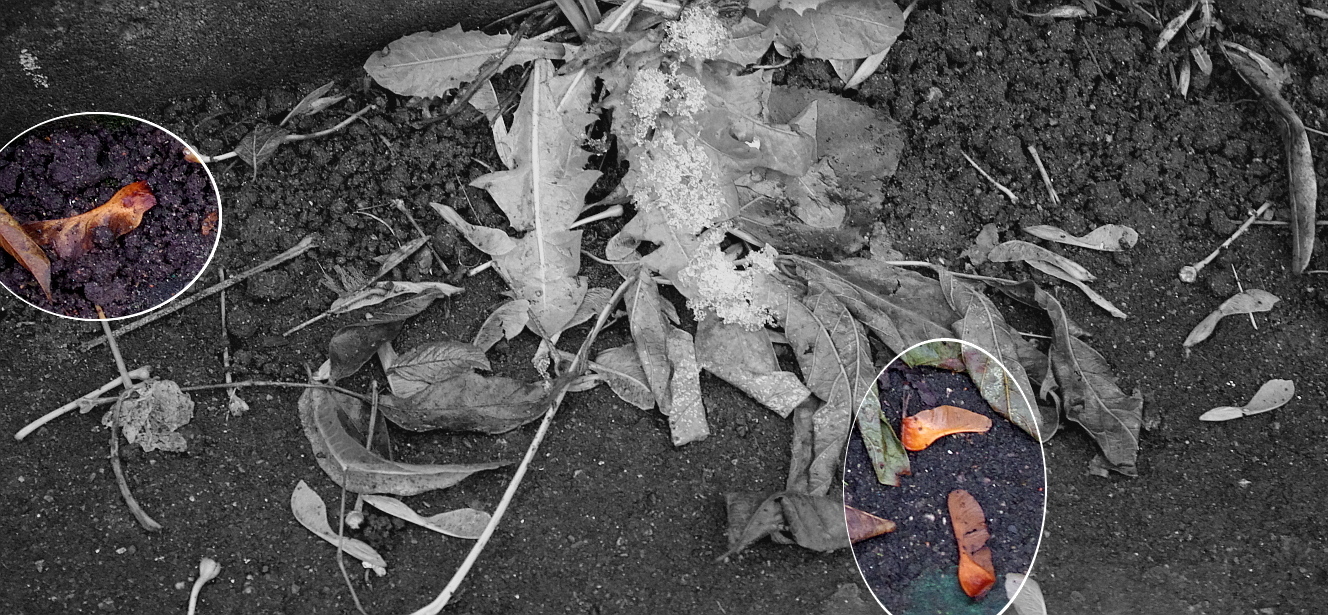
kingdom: Plantae
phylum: Tracheophyta
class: Magnoliopsida
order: Sapindales
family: Sapindaceae
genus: Acer
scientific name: Acer platanoides
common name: Norway maple
